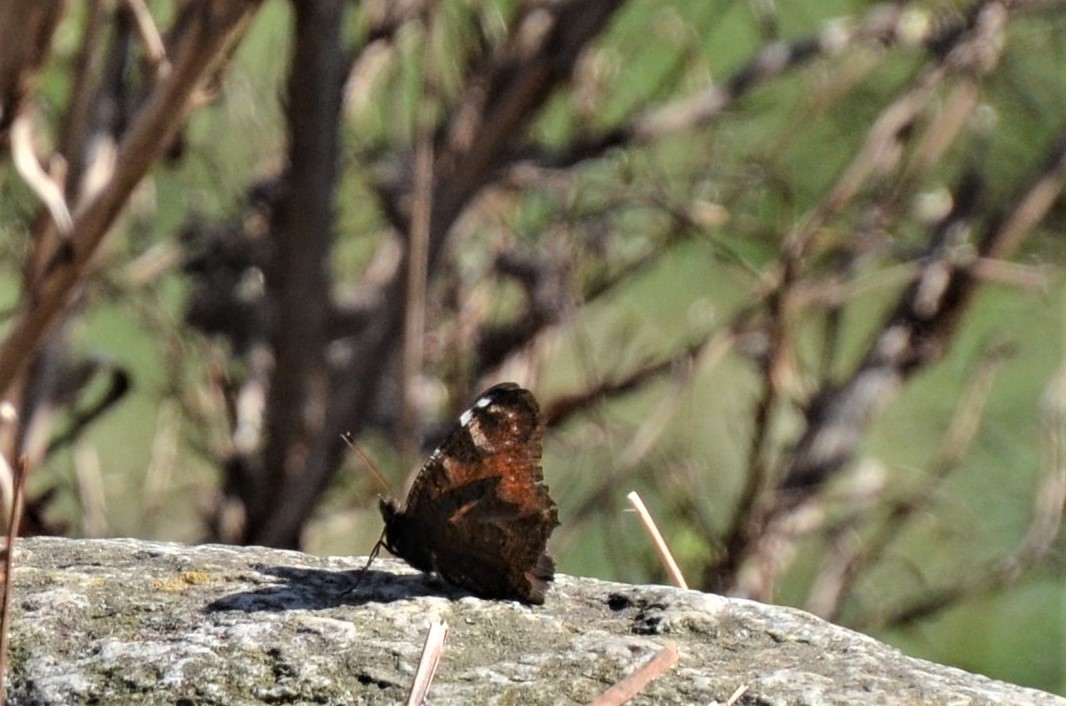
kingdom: Animalia
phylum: Arthropoda
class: Insecta
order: Lepidoptera
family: Nymphalidae
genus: Aglais
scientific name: Aglais io
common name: Peacock
